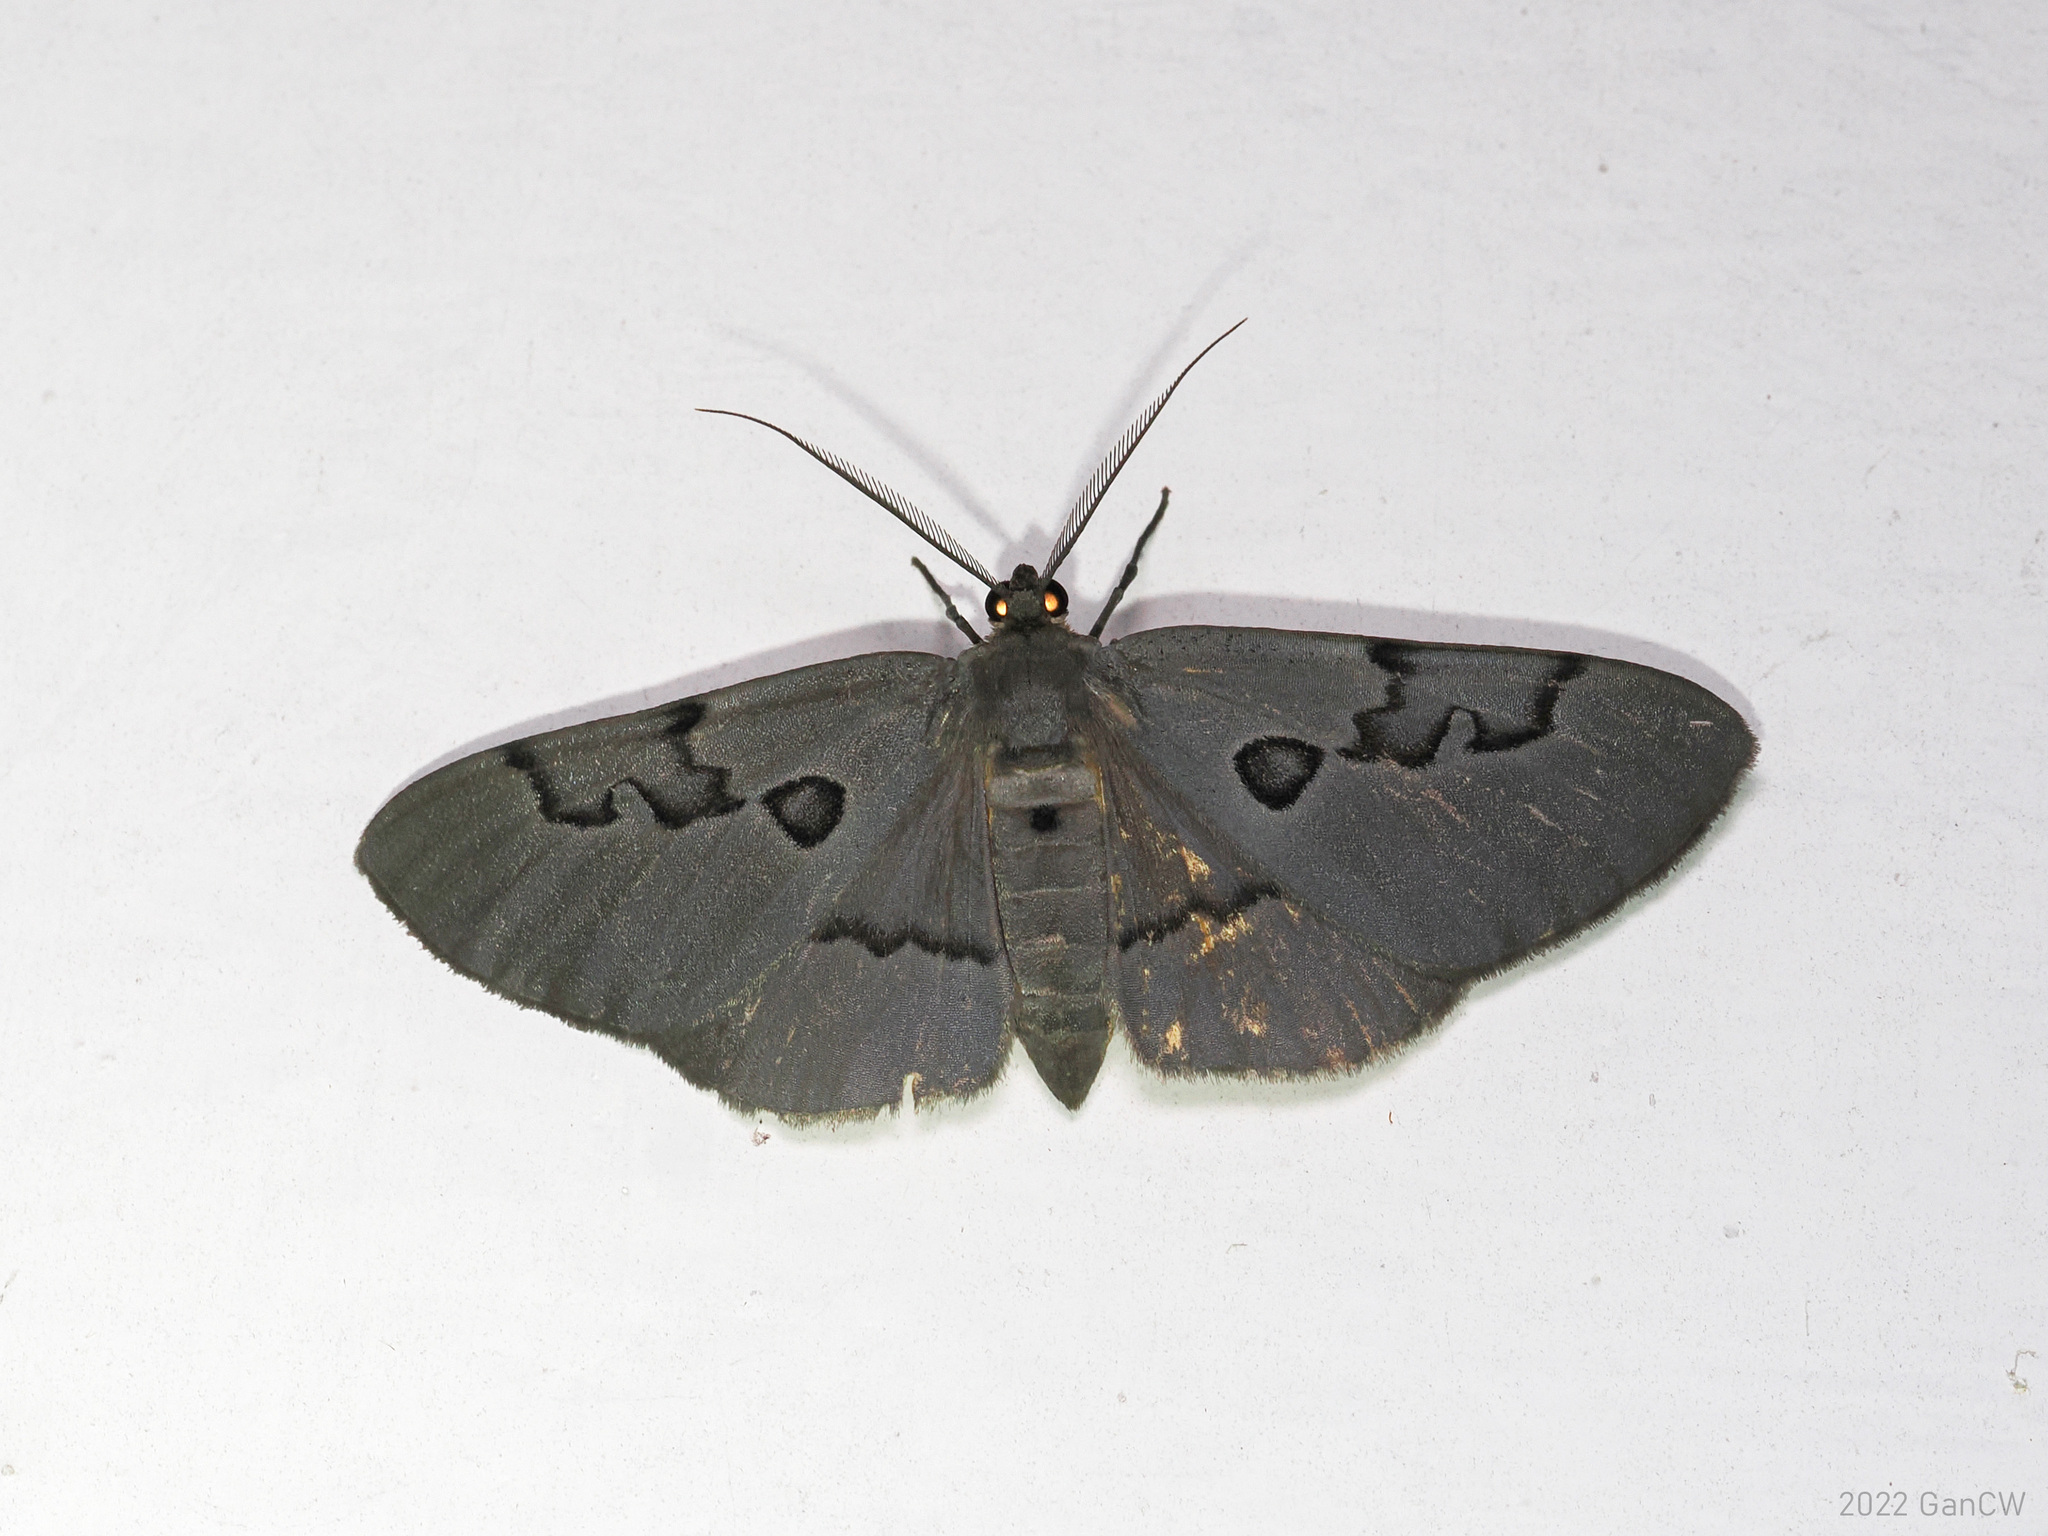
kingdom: Animalia
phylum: Arthropoda
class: Insecta
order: Lepidoptera
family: Geometridae
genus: Hypochrosis
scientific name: Hypochrosis sternaria
